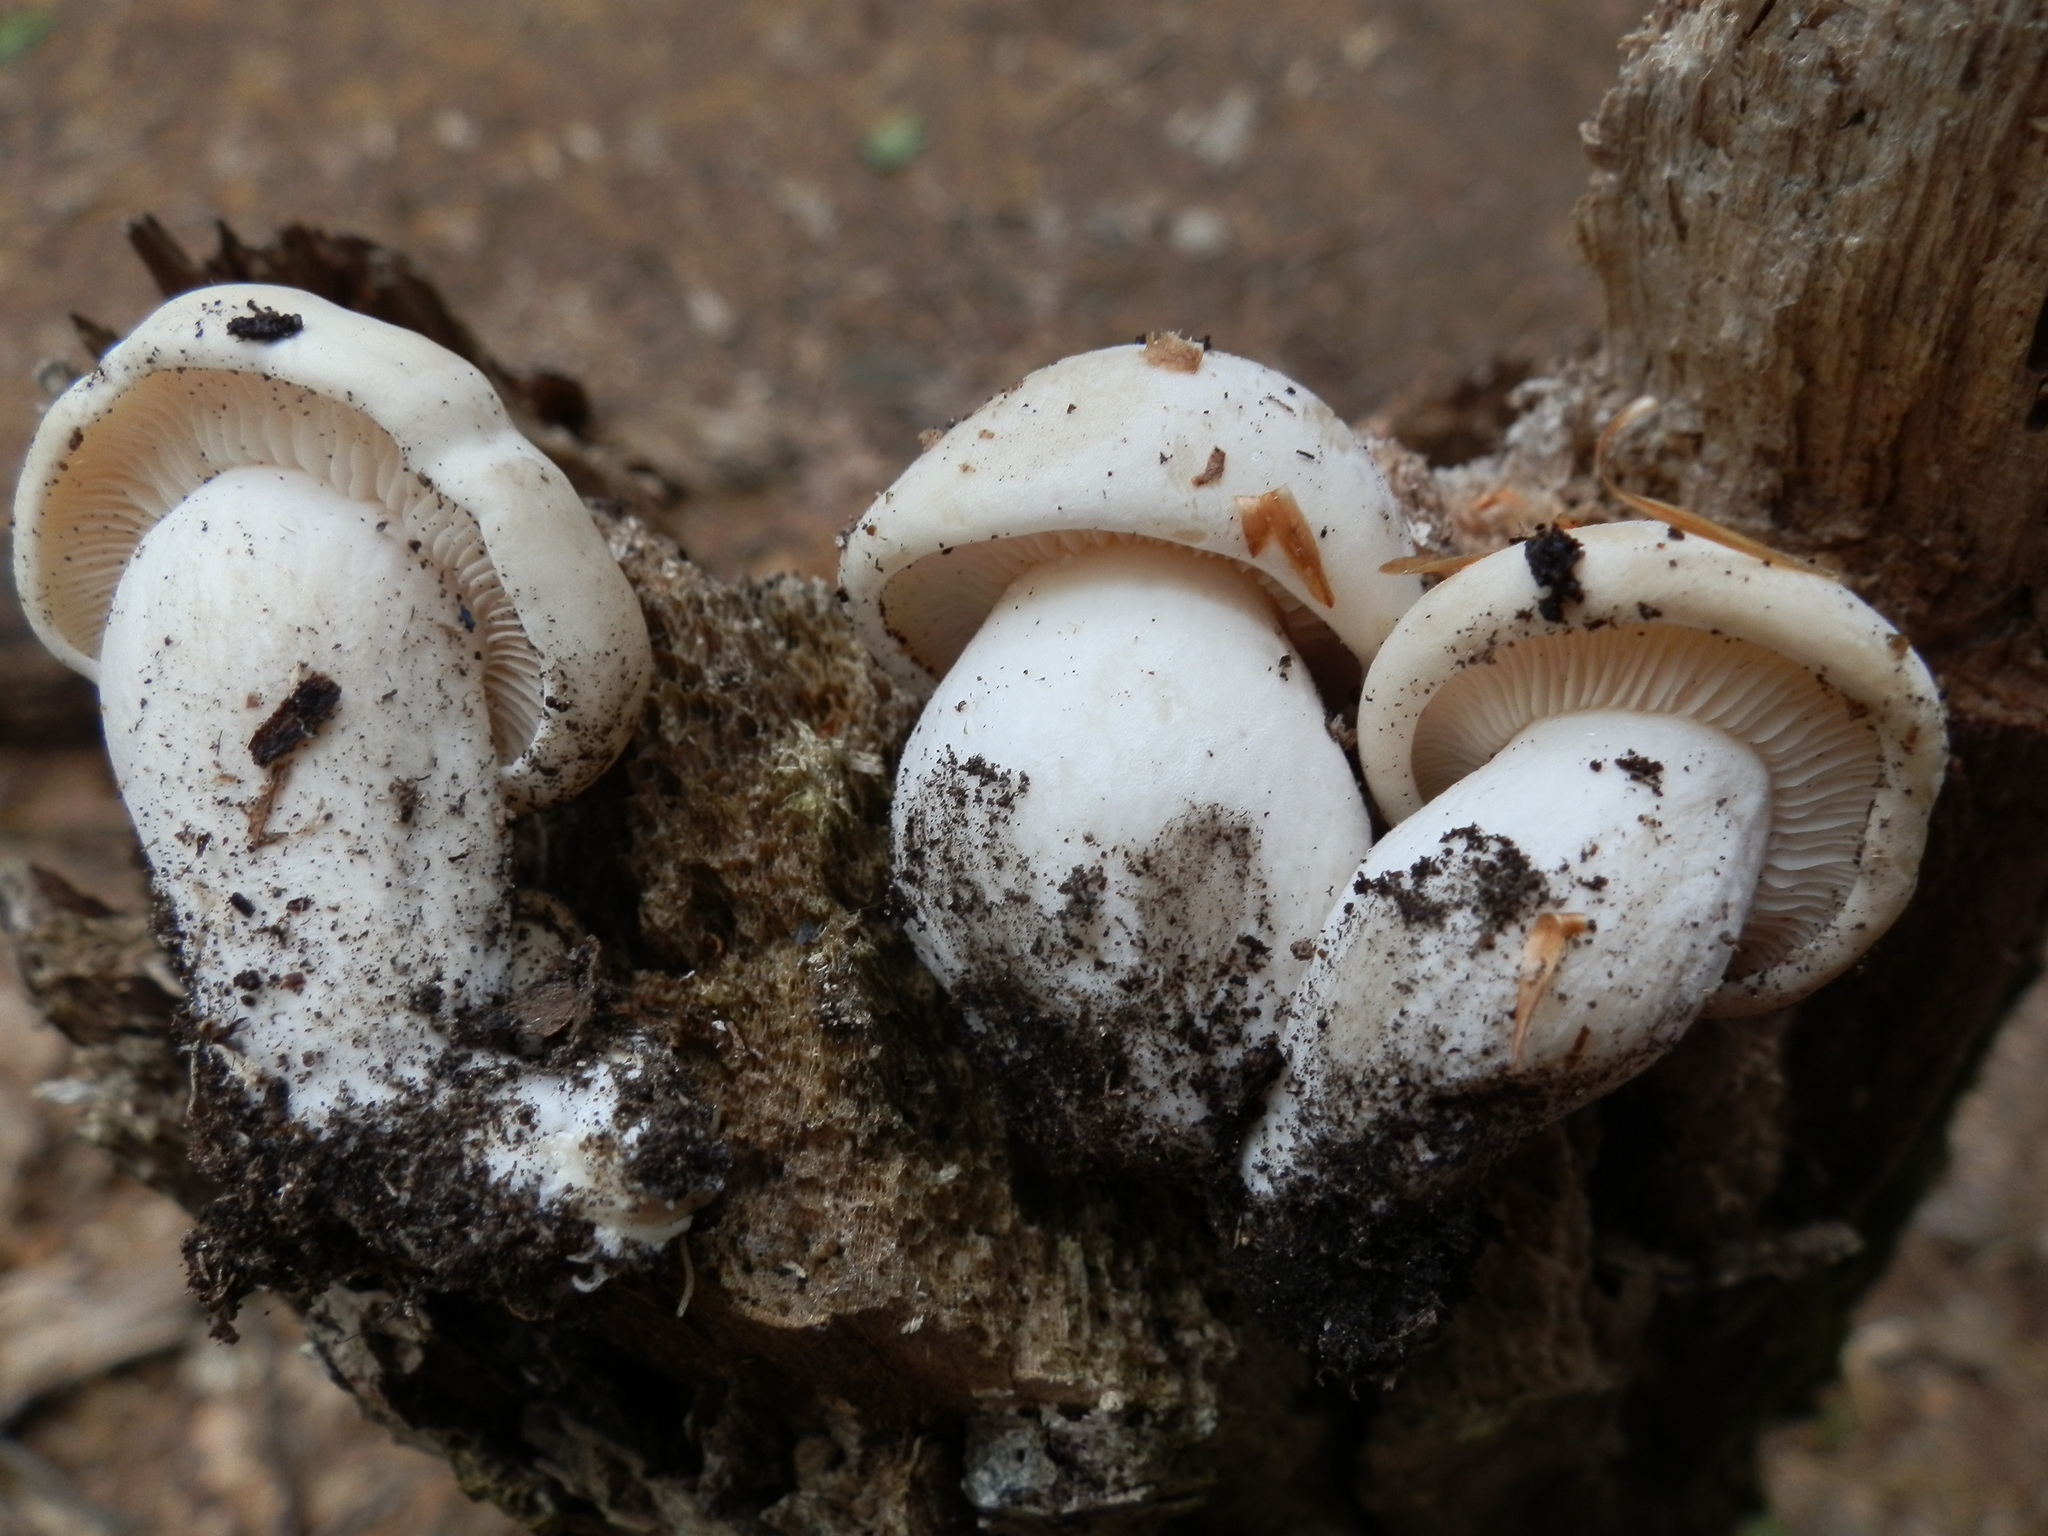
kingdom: Fungi
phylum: Basidiomycota
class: Agaricomycetes
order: Agaricales
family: Lyophyllaceae
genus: Hypsizygus
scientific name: Hypsizygus marmoreus
